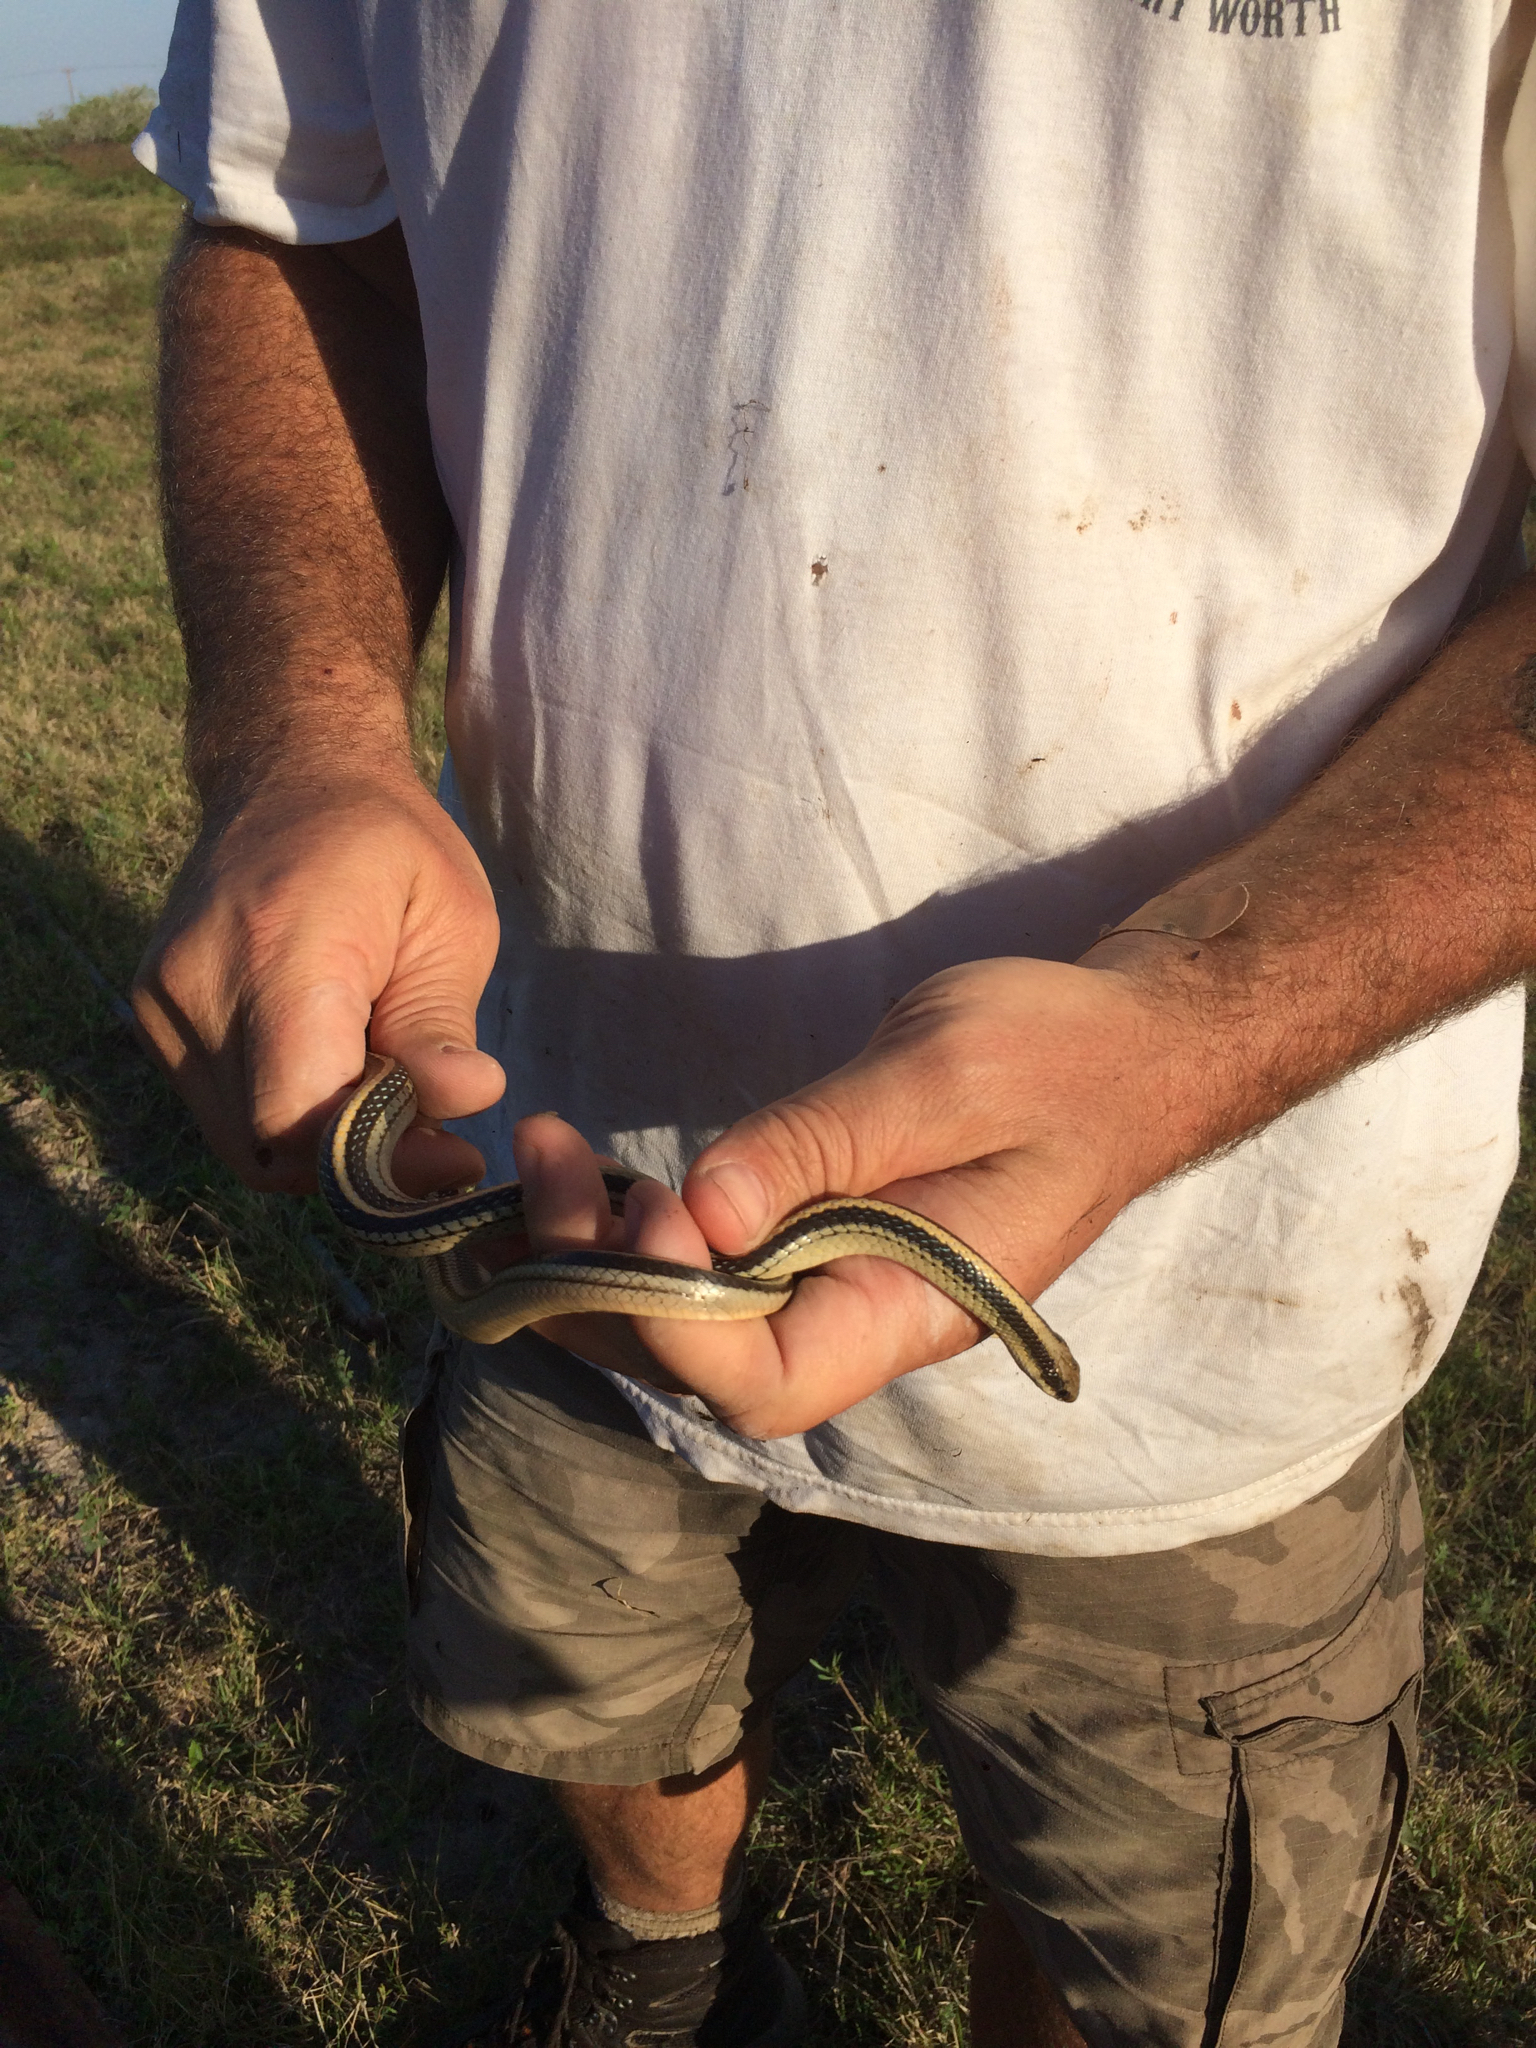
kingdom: Animalia
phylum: Chordata
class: Squamata
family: Colubridae
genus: Salvadora
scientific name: Salvadora lineata
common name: Texas patchnose snake
